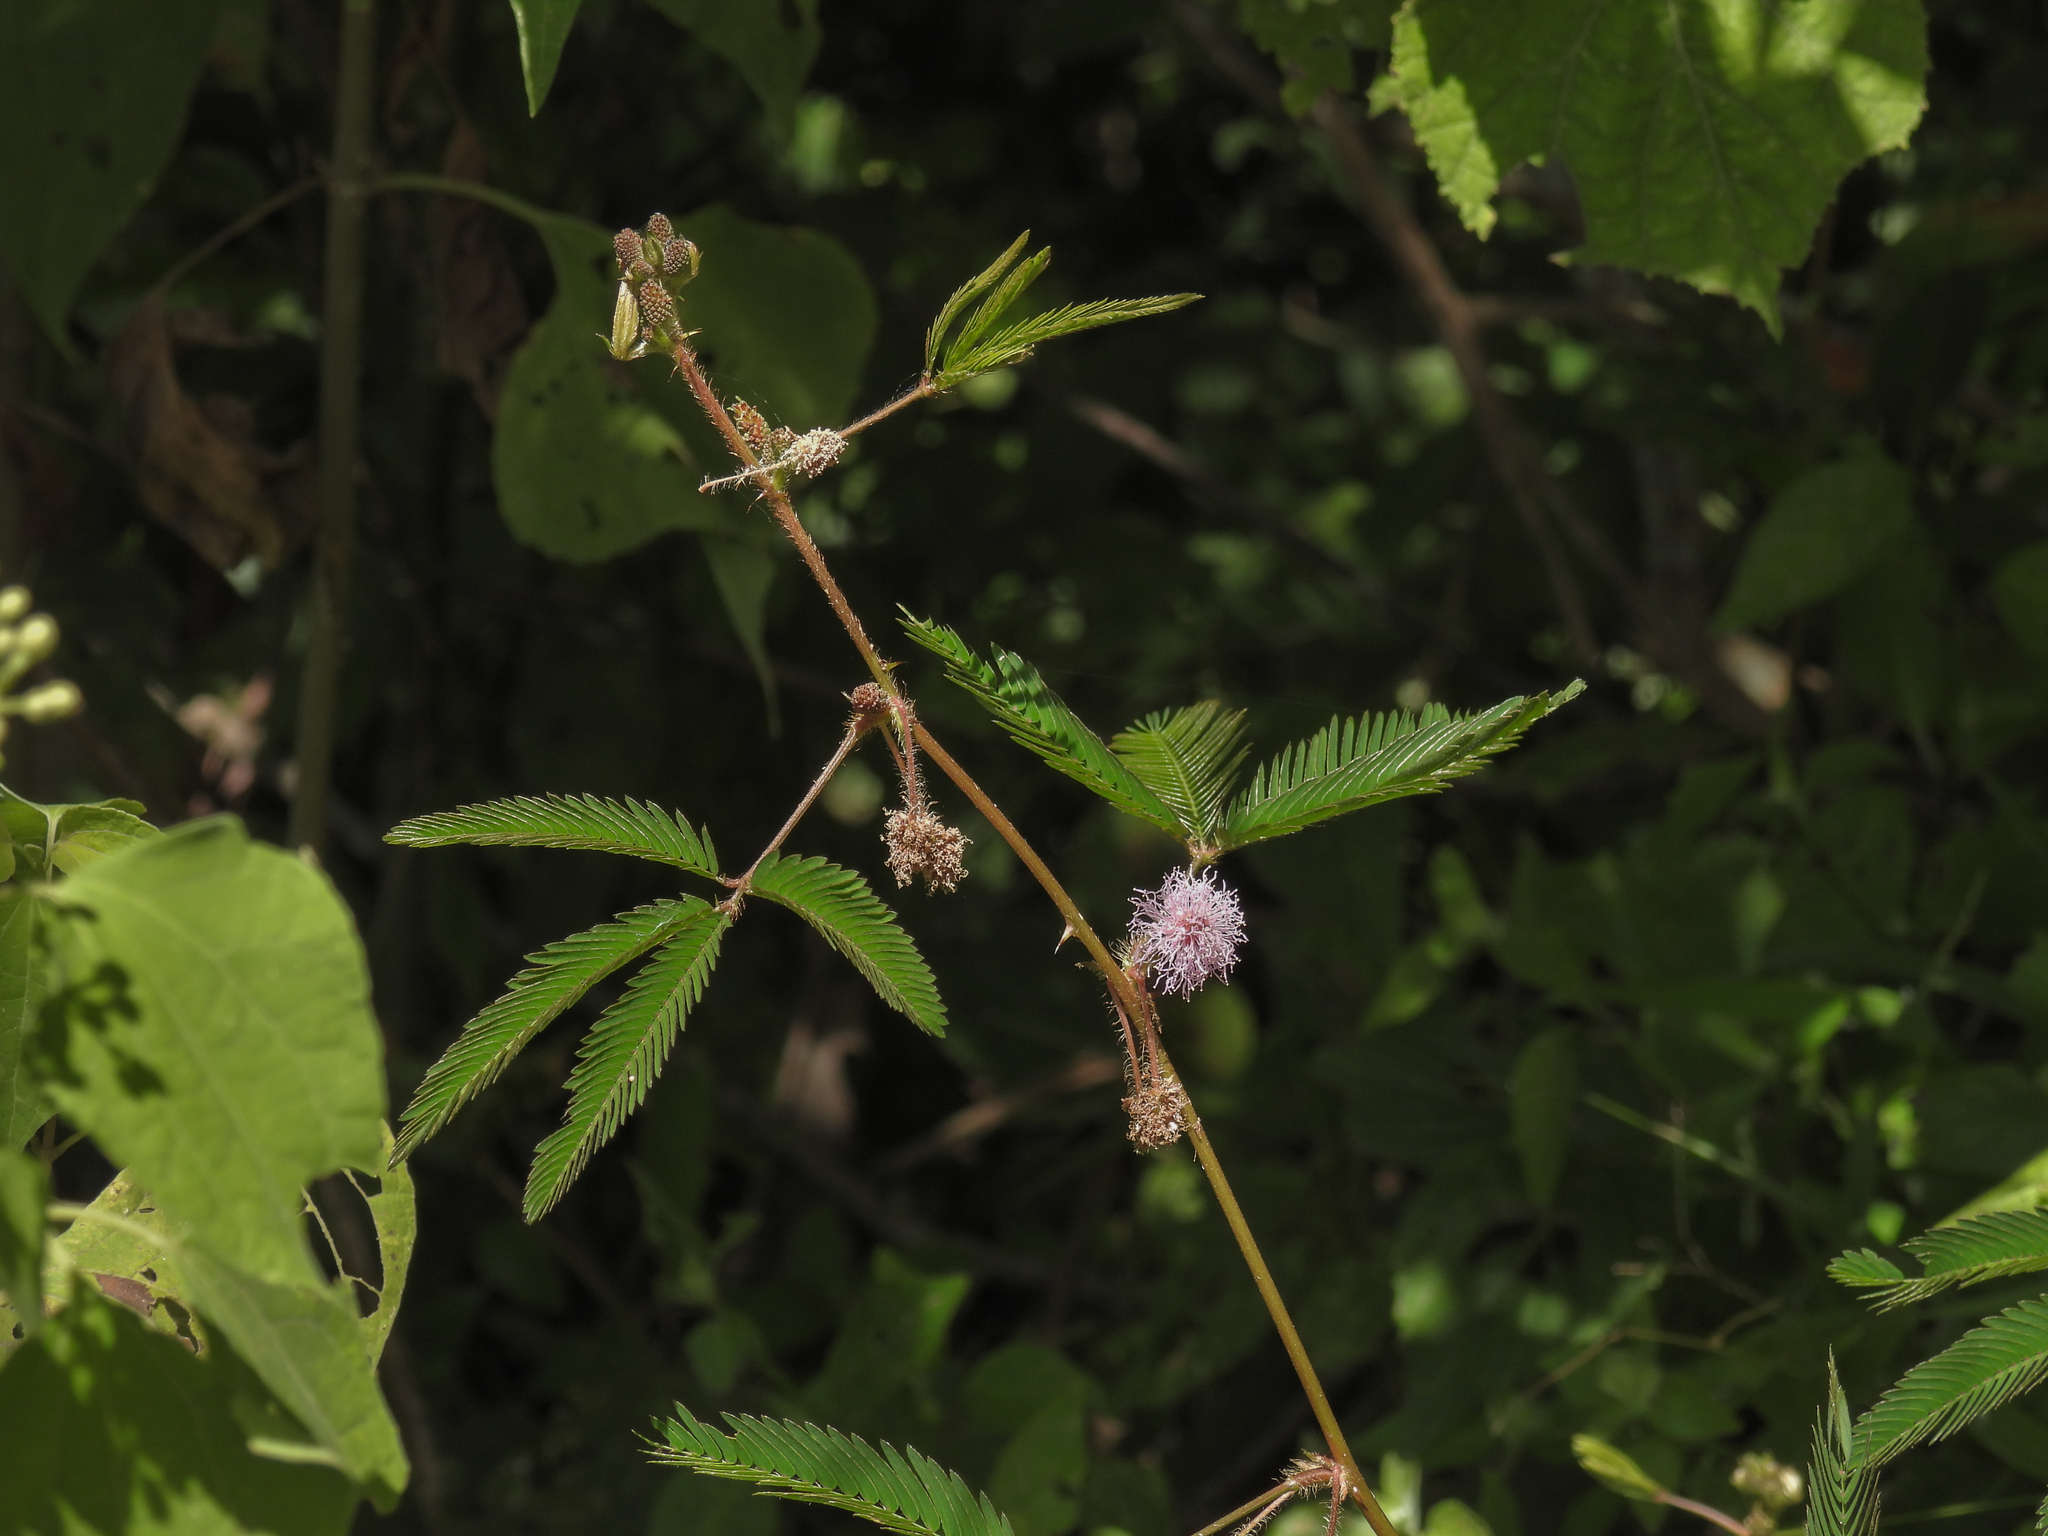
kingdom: Plantae
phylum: Tracheophyta
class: Magnoliopsida
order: Fabales
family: Fabaceae
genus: Mimosa
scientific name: Mimosa pudica
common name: Sensitive plant
